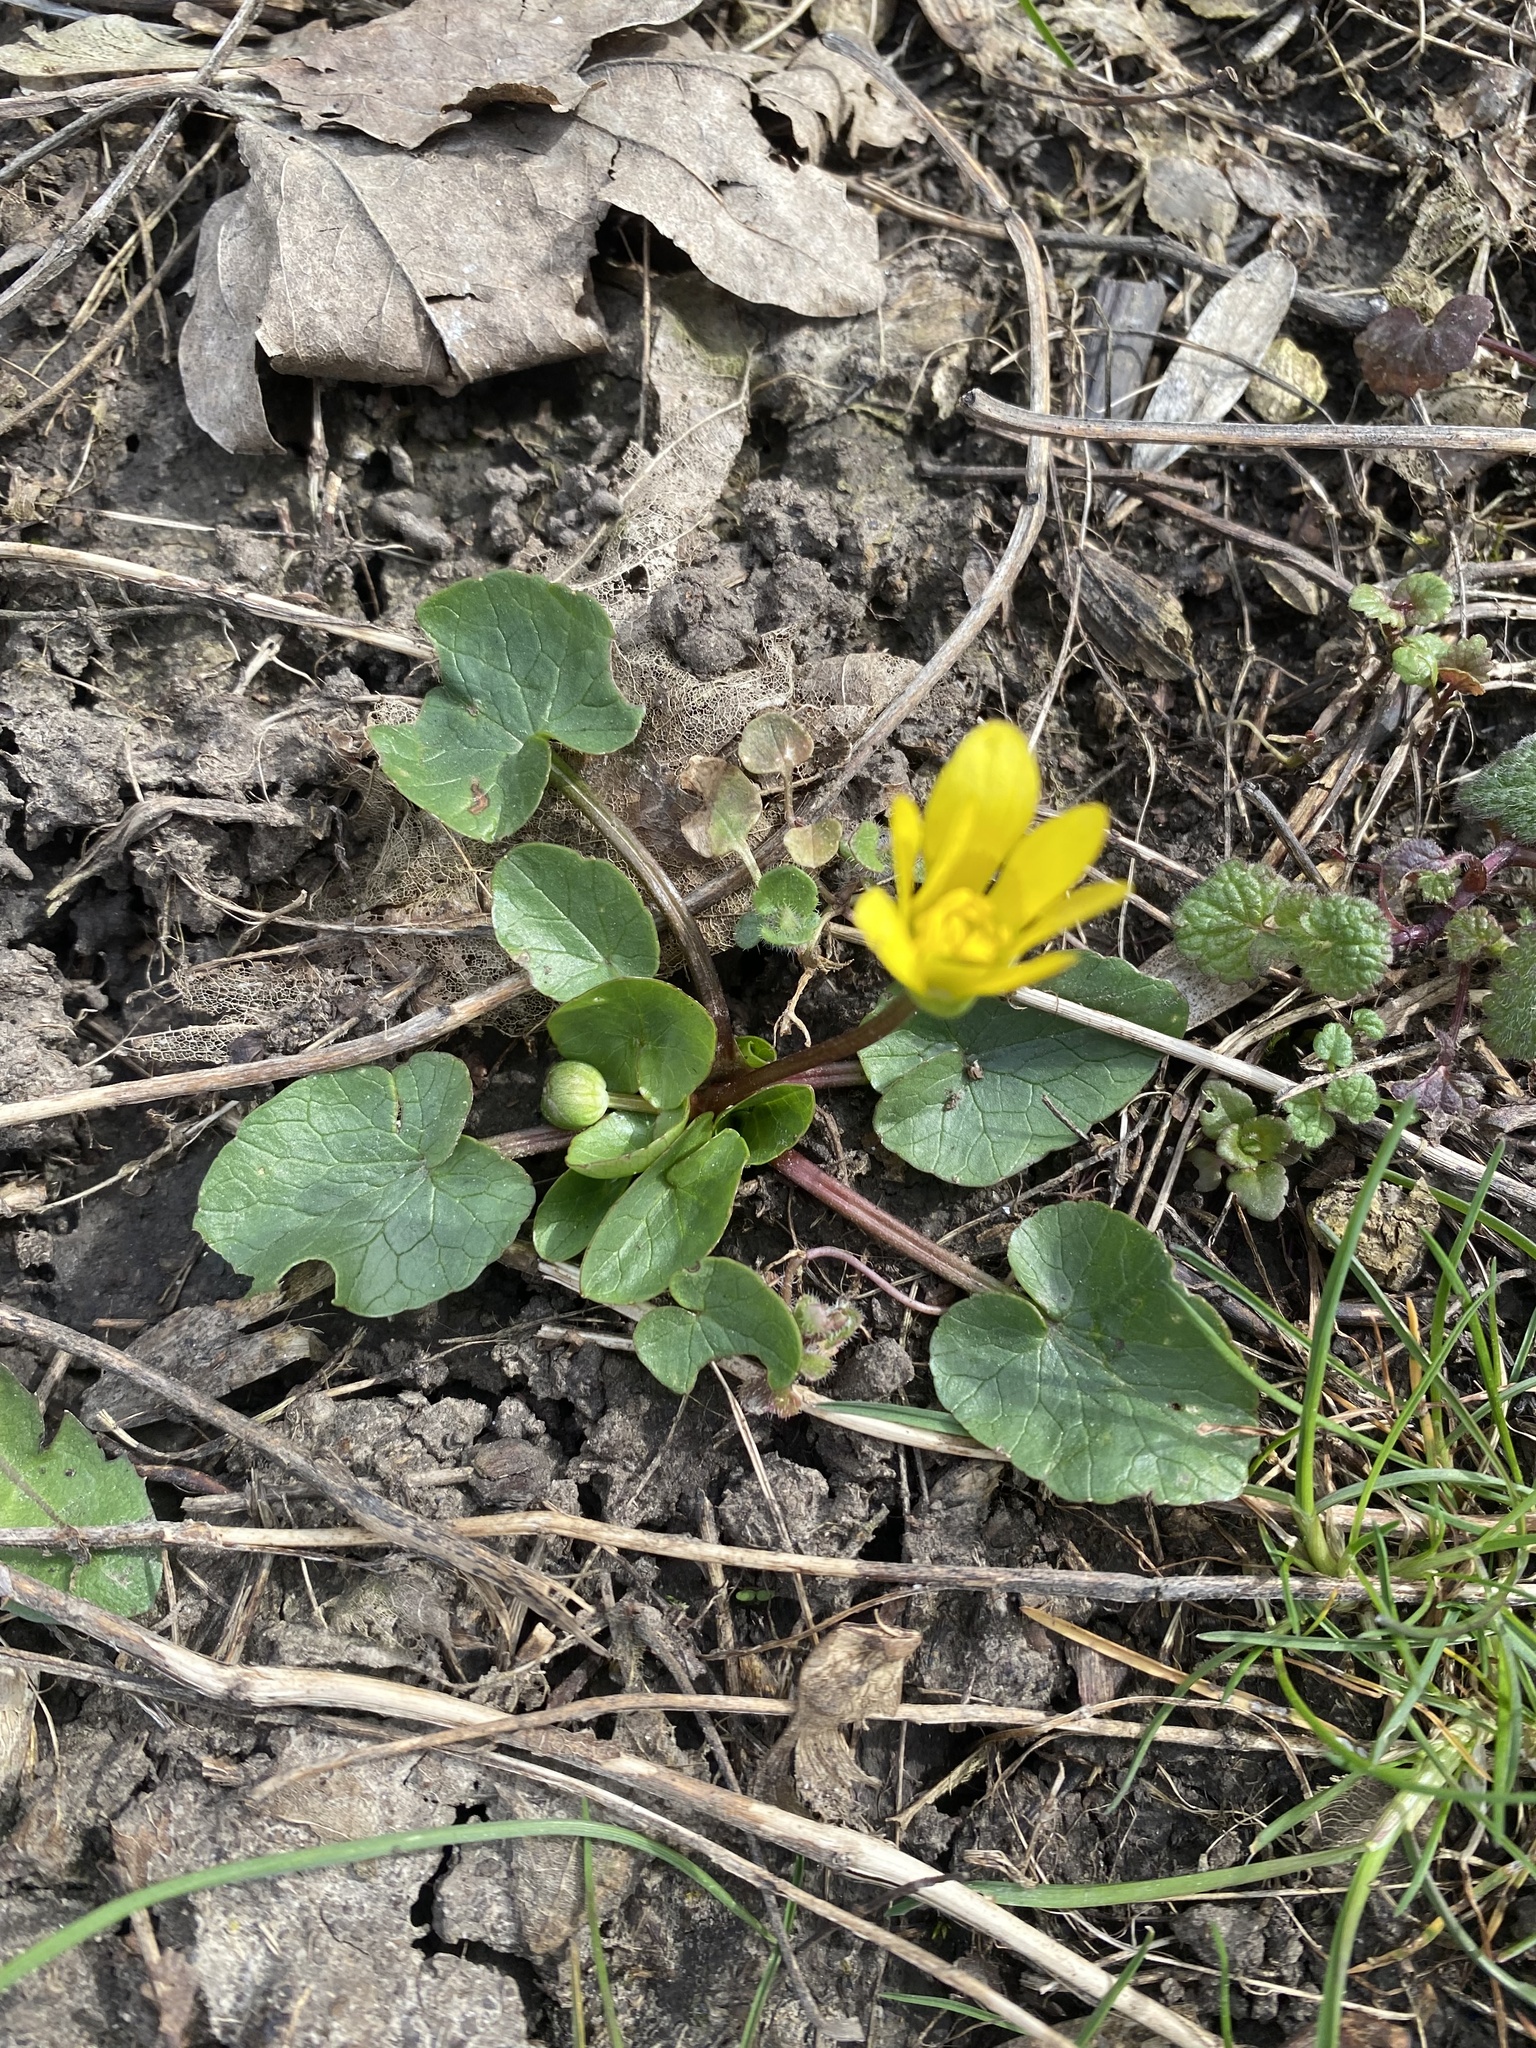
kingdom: Plantae
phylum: Tracheophyta
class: Magnoliopsida
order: Ranunculales
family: Ranunculaceae
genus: Ficaria
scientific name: Ficaria verna
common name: Lesser celandine
